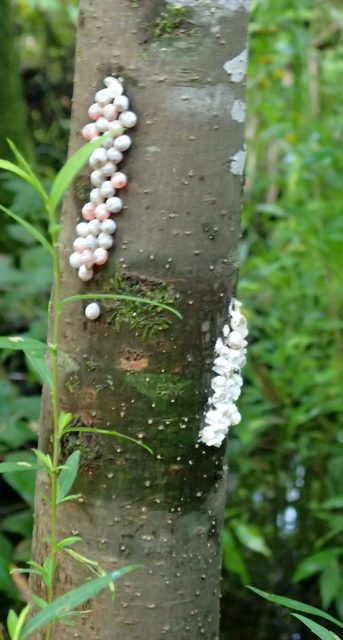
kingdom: Animalia
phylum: Mollusca
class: Gastropoda
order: Architaenioglossa
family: Ampullariidae
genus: Pomacea
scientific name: Pomacea paludosa
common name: Florida applesnail
